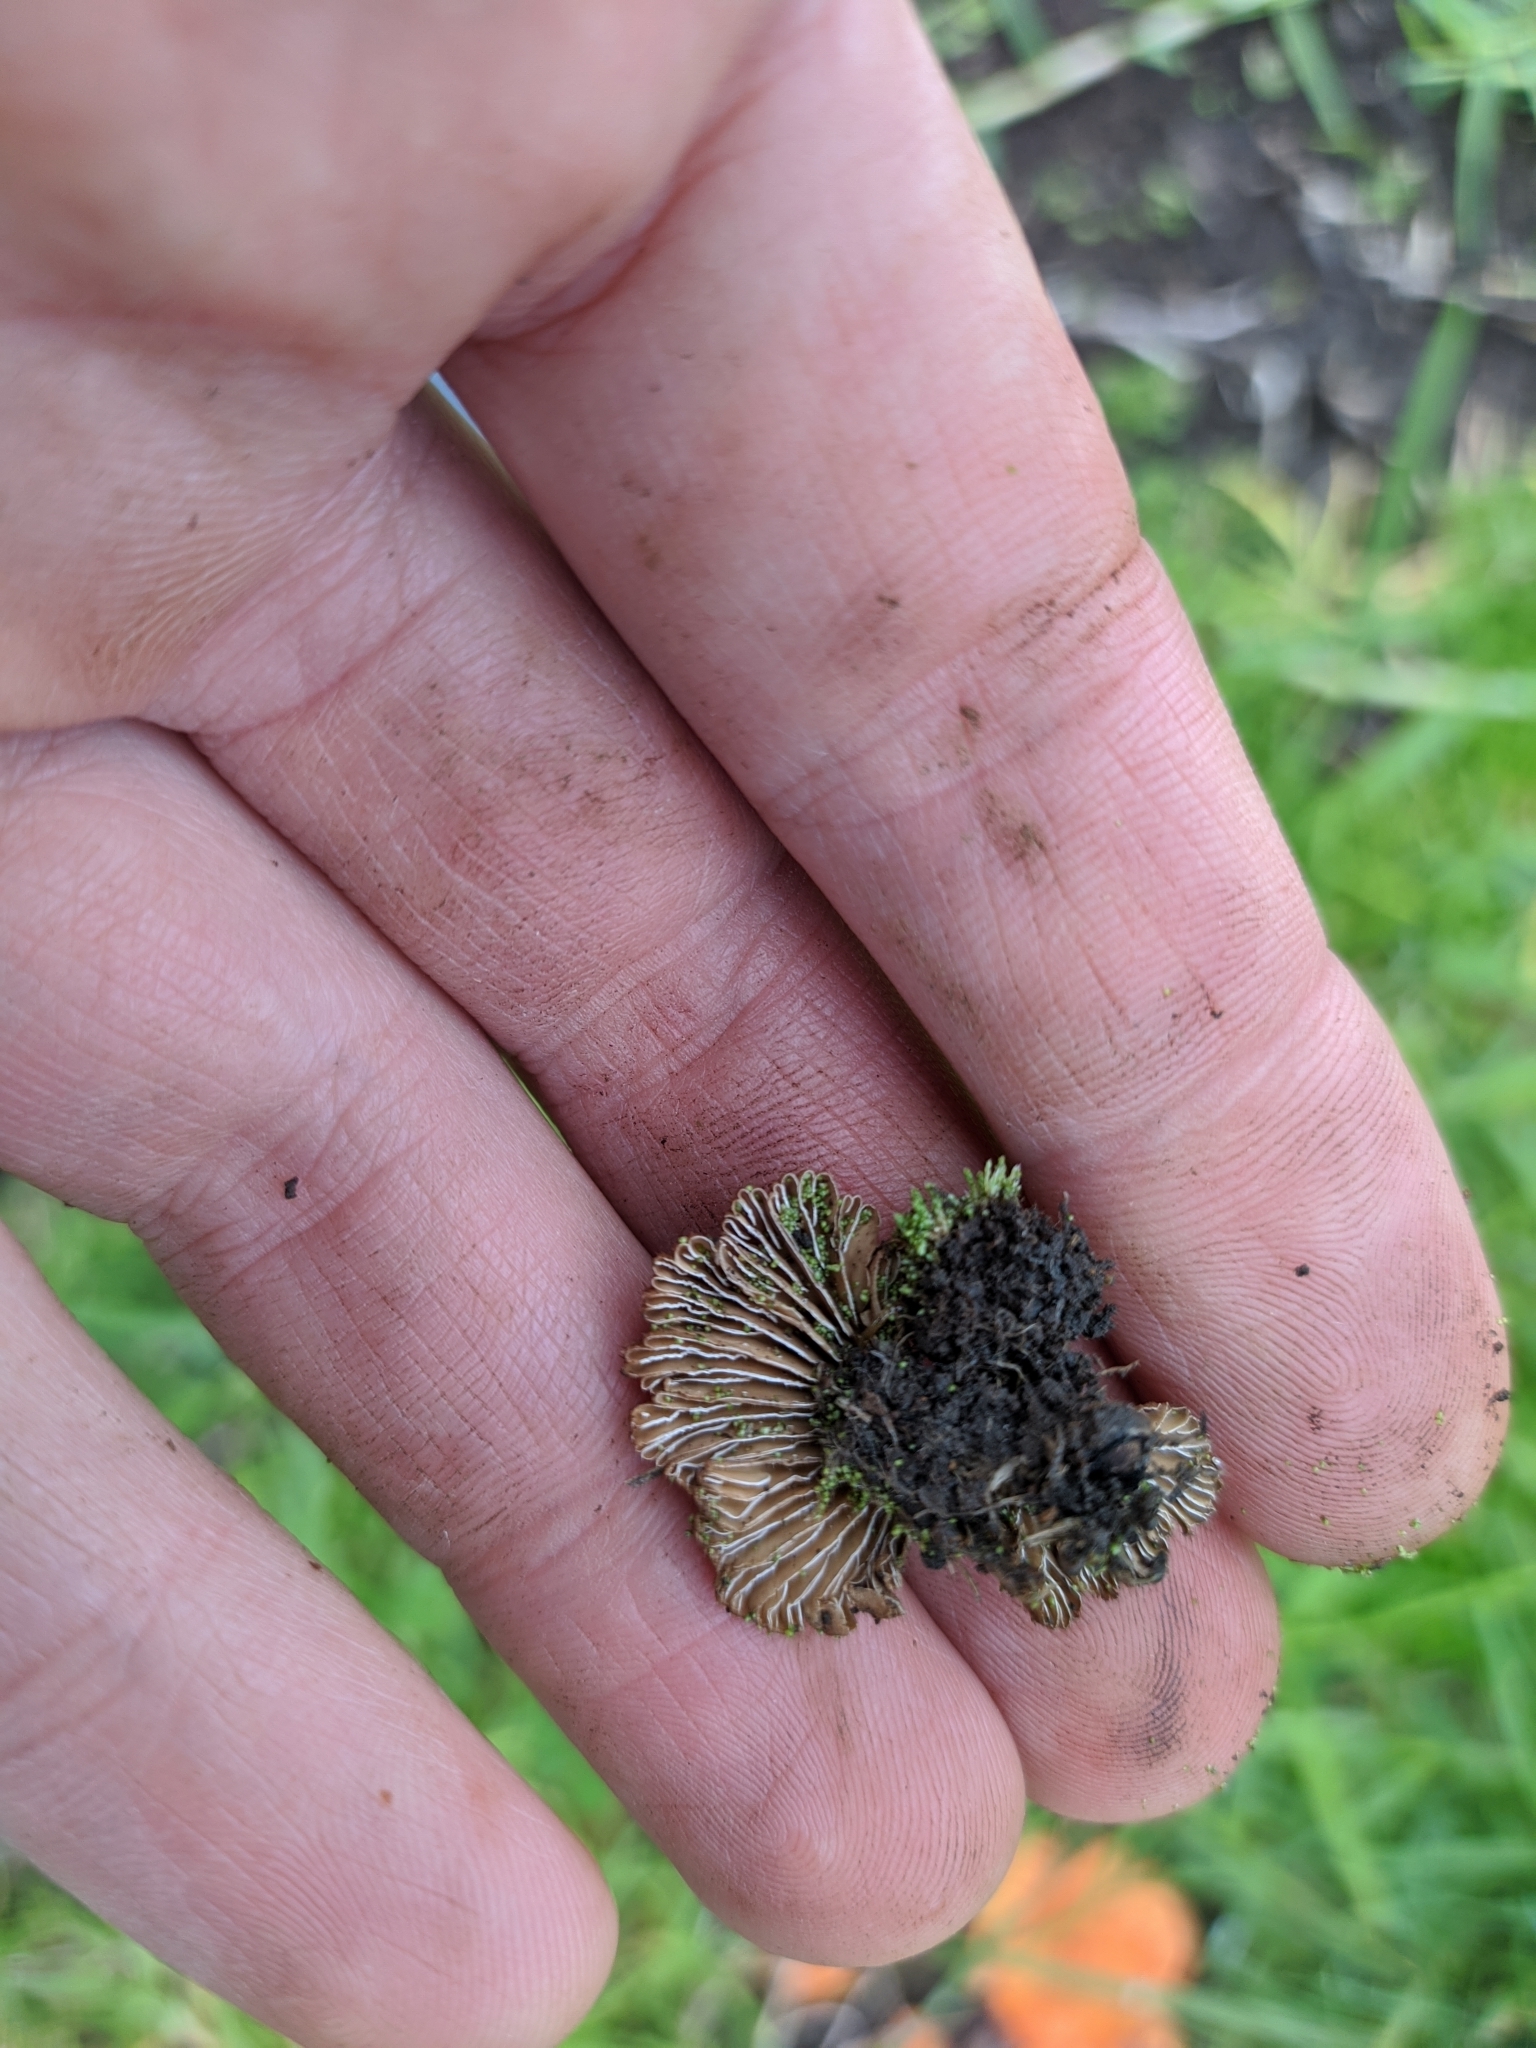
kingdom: Fungi
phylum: Basidiomycota
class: Agaricomycetes
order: Agaricales
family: Schizophyllaceae
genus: Schizophyllum
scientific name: Schizophyllum commune
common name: Common porecrust
